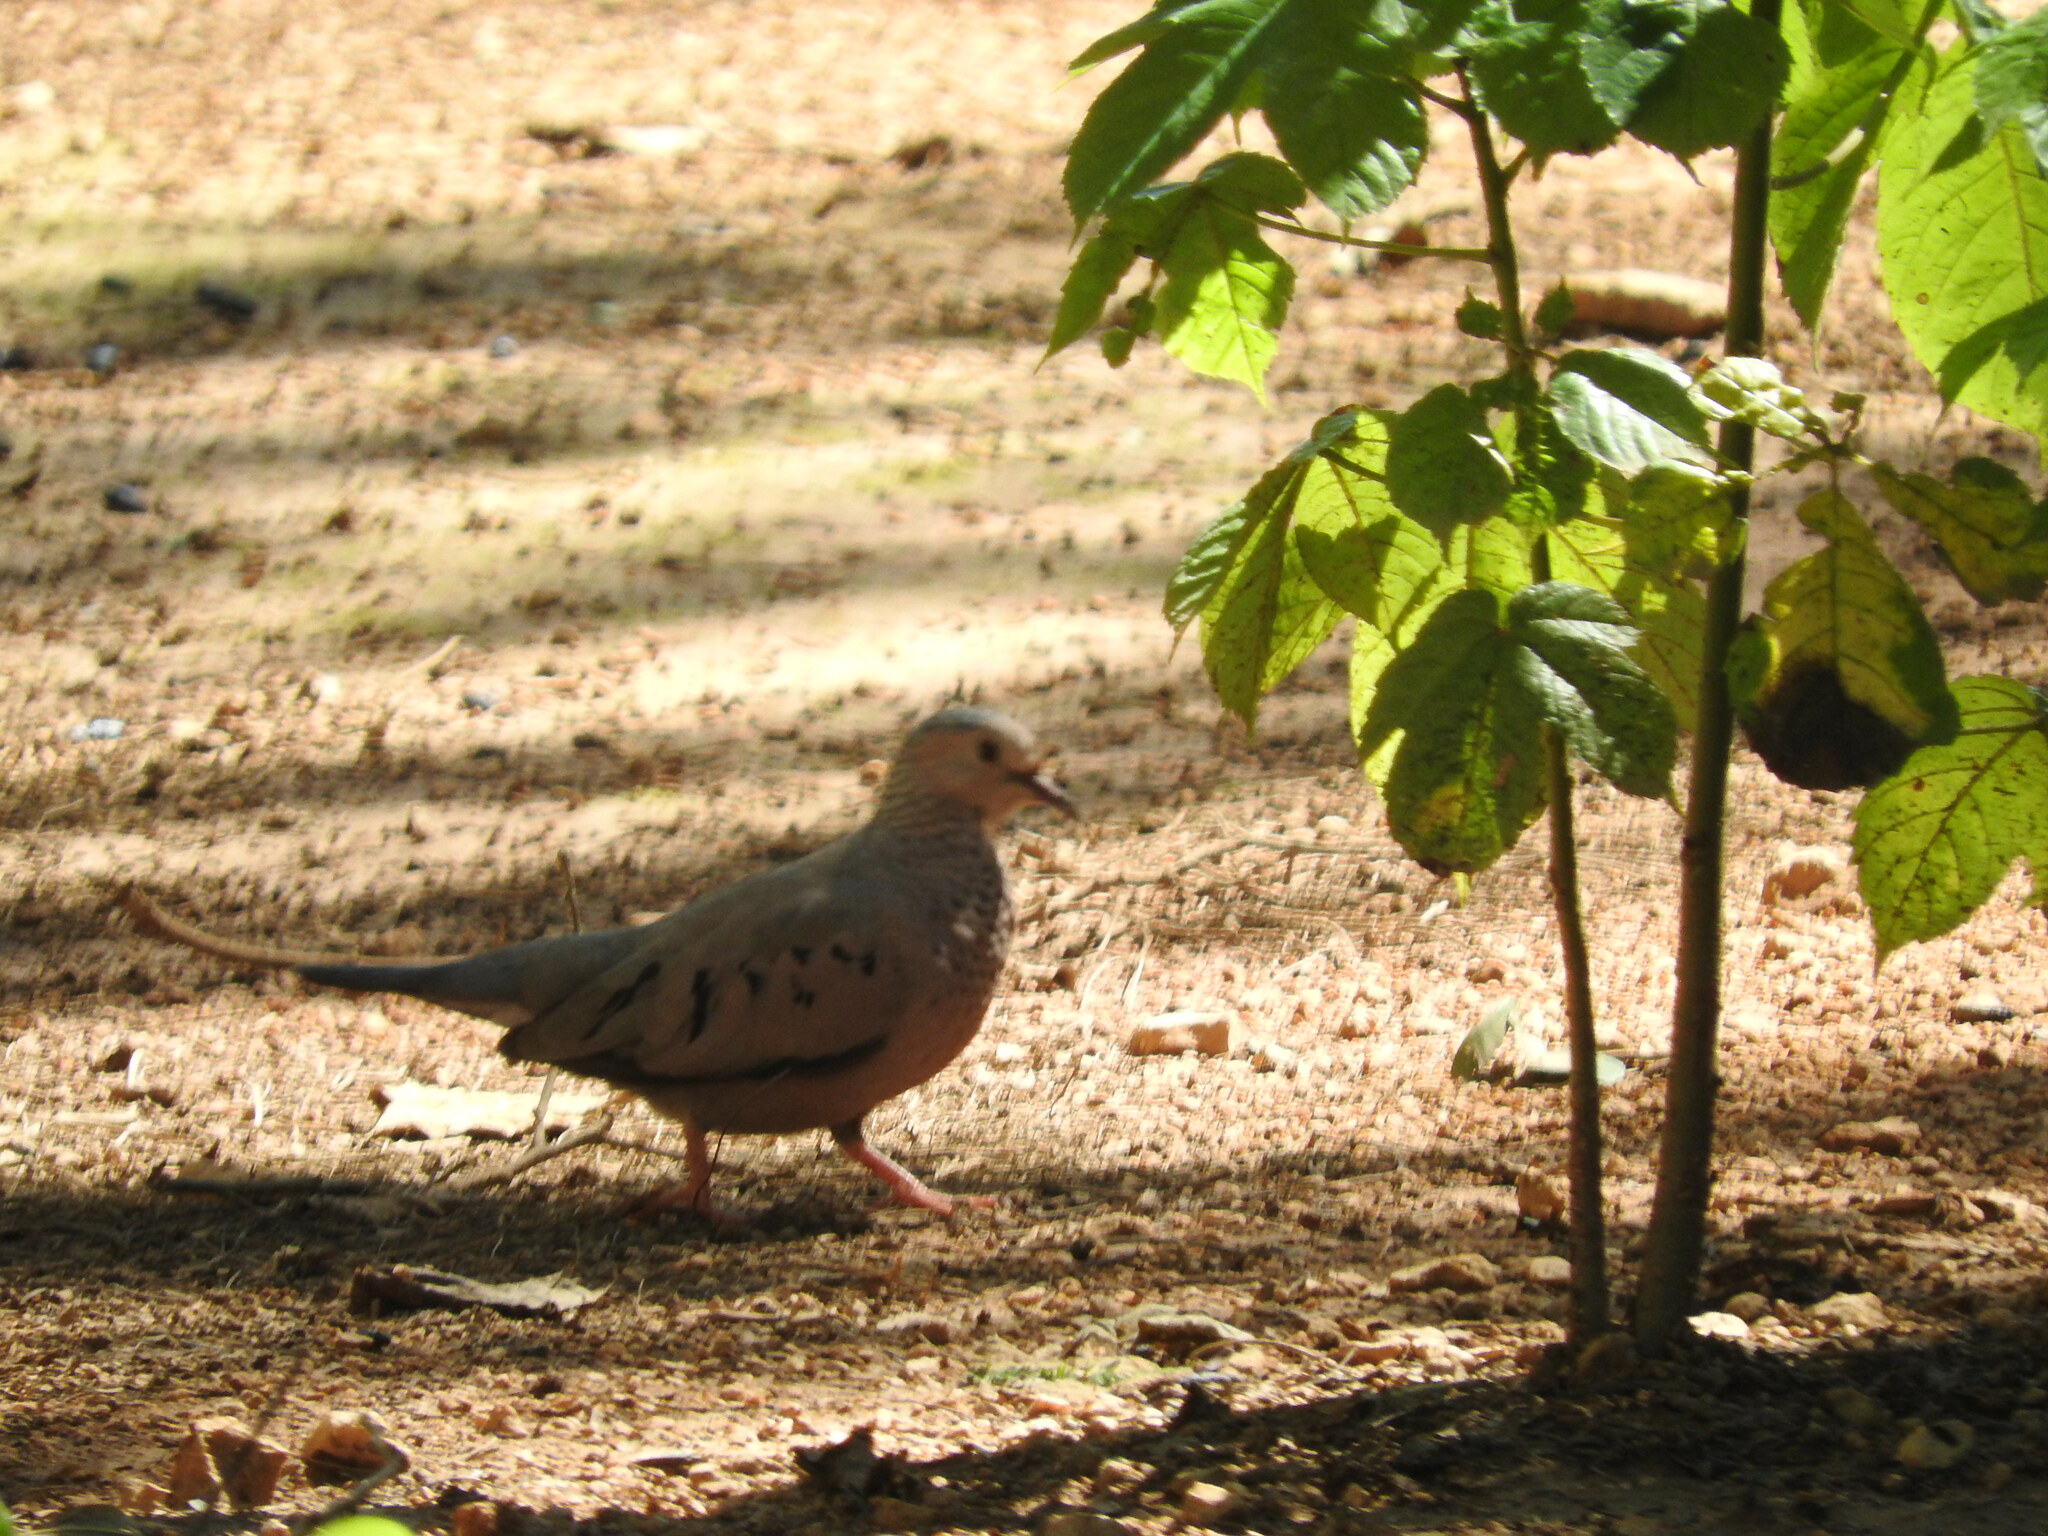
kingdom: Animalia
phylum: Chordata
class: Aves
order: Columbiformes
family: Columbidae
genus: Columbina
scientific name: Columbina passerina
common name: Common ground-dove
